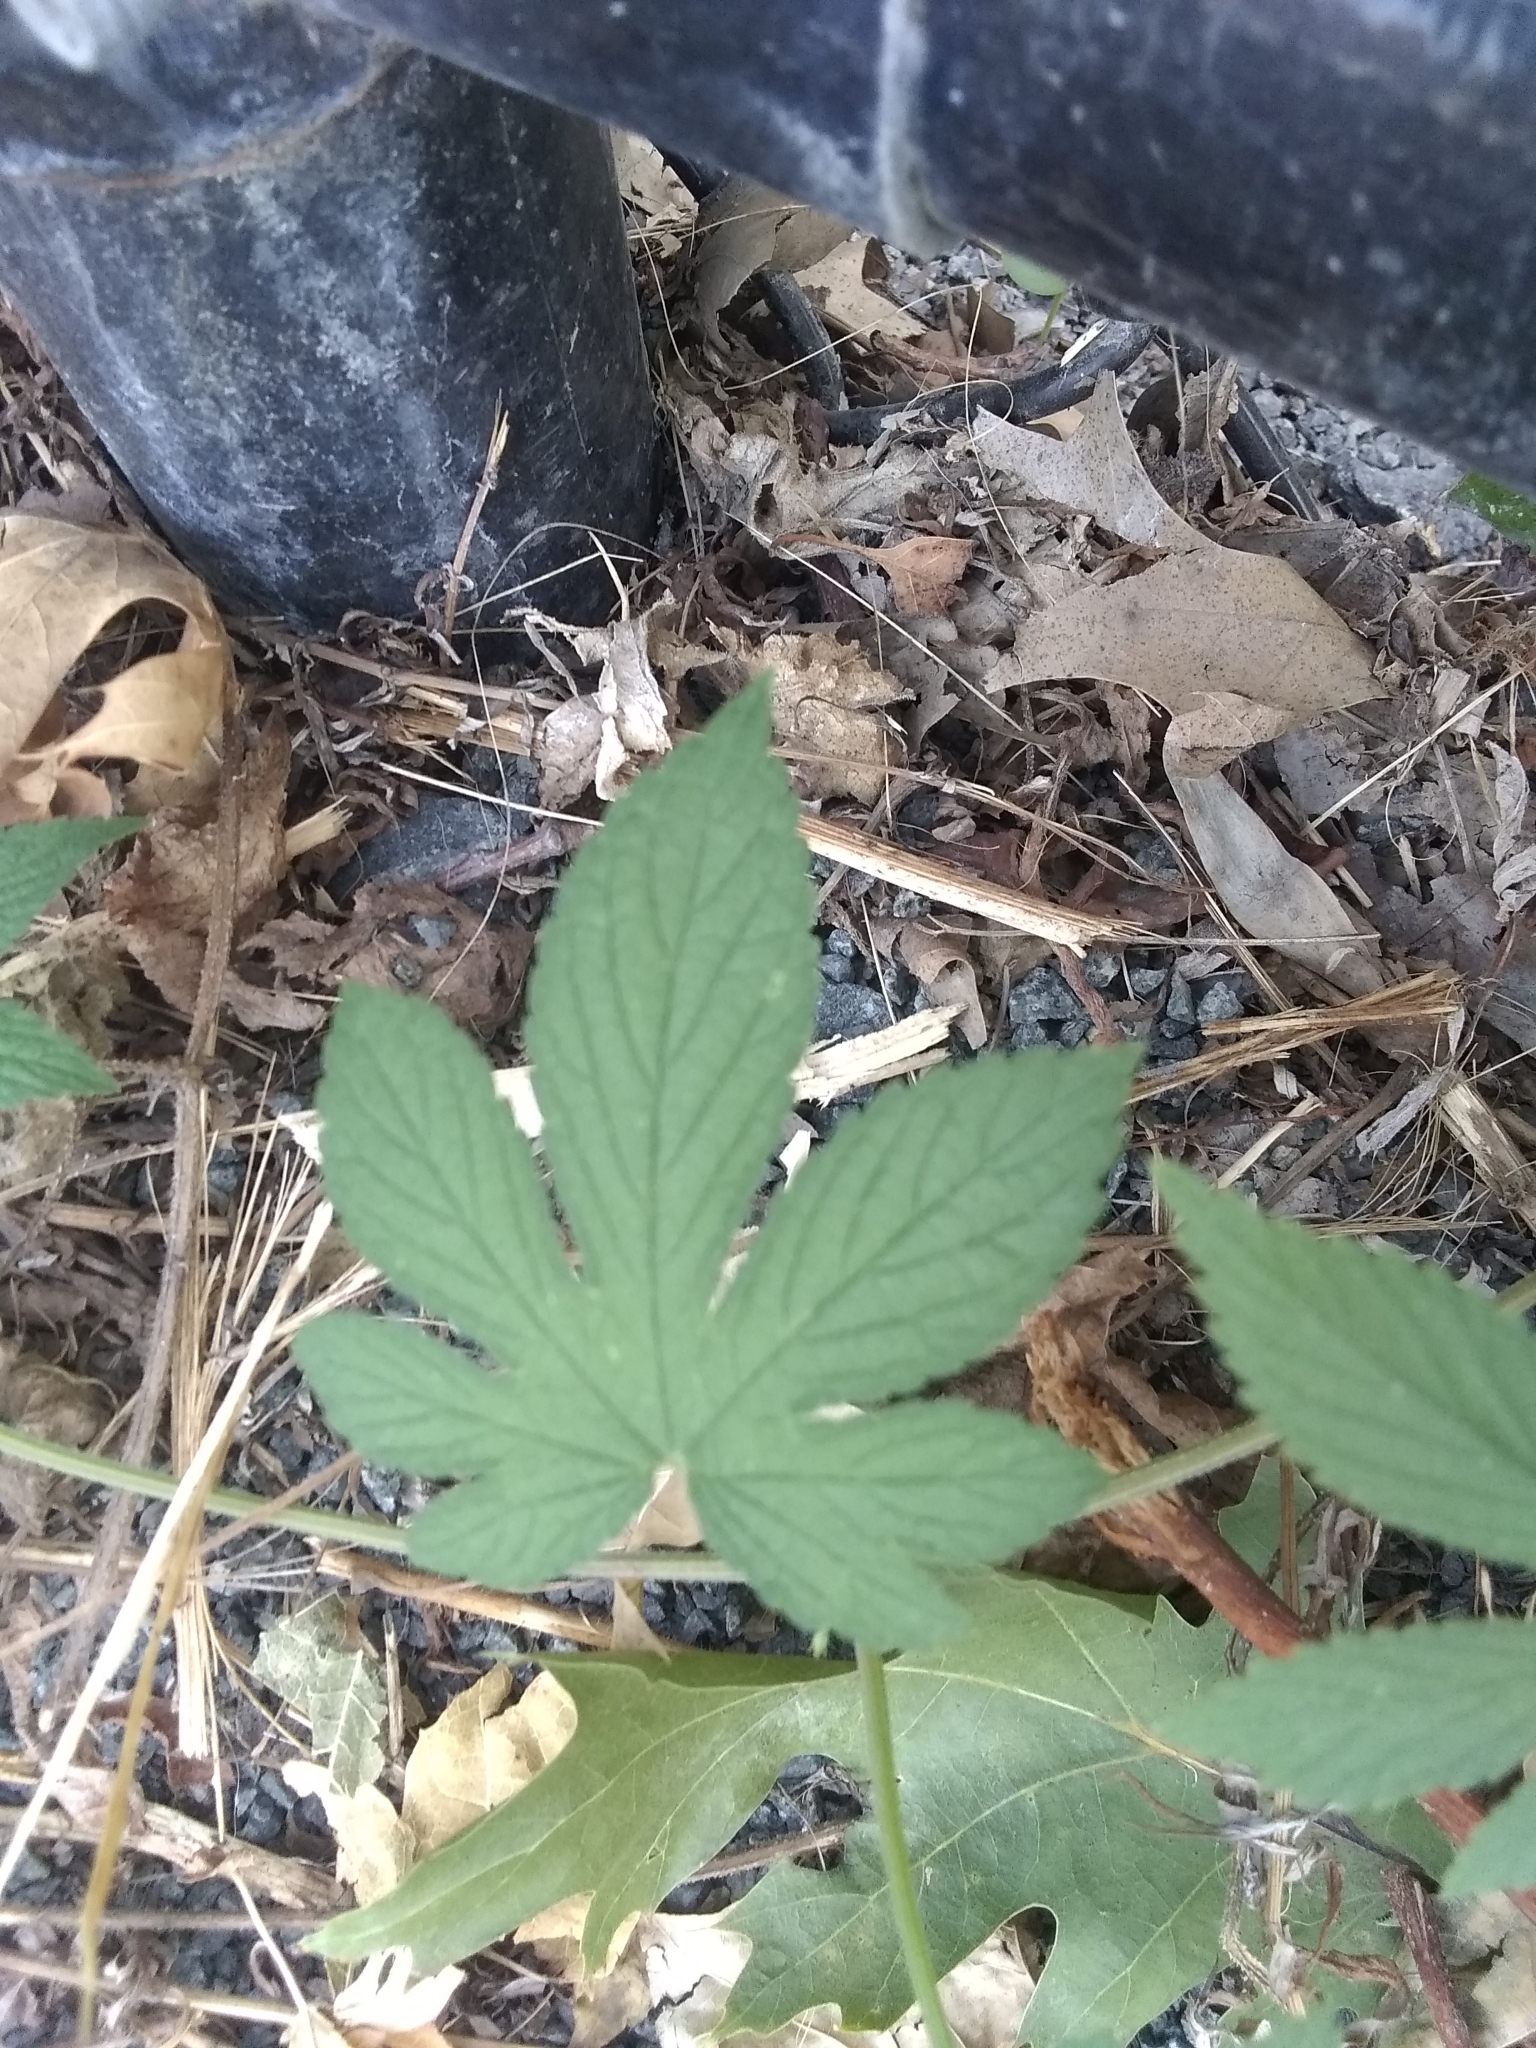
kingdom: Plantae
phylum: Tracheophyta
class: Magnoliopsida
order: Rosales
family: Cannabaceae
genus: Humulus
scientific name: Humulus scandens
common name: Japanese hop
